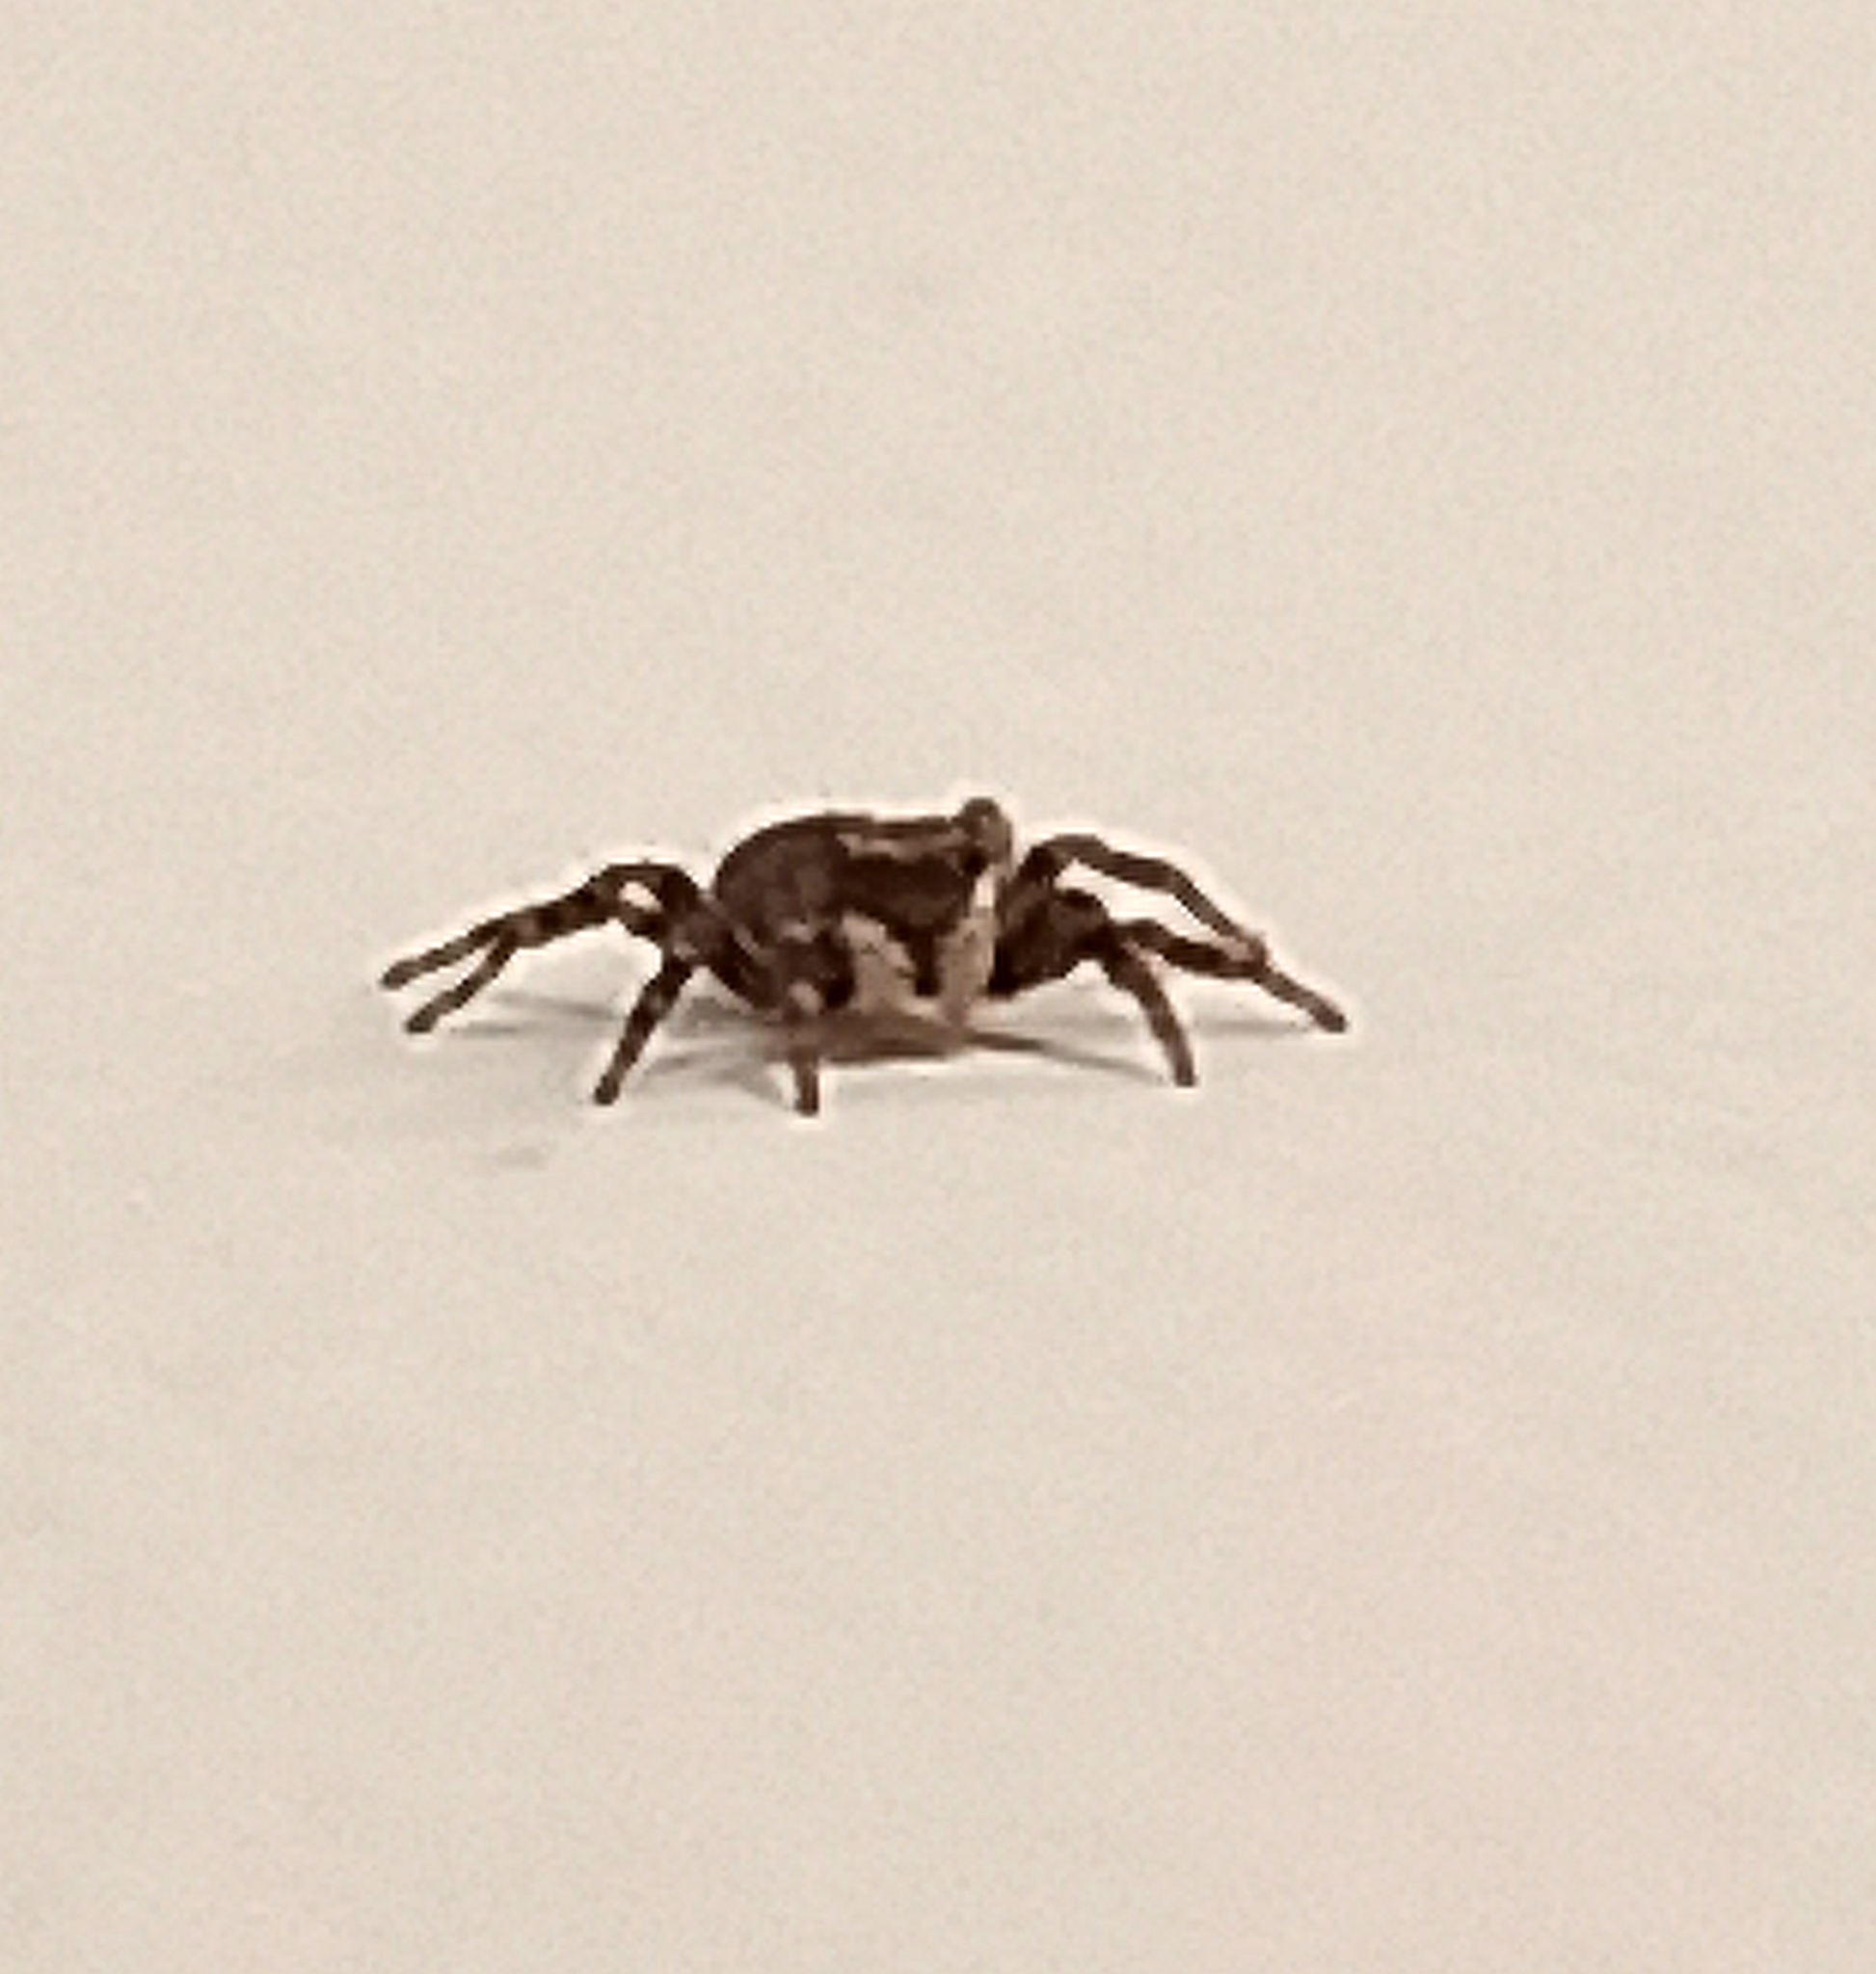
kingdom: Animalia
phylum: Arthropoda
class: Arachnida
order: Araneae
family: Salticidae
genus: Pseudeuophrys
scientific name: Pseudeuophrys lanigera
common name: Jumping spider
